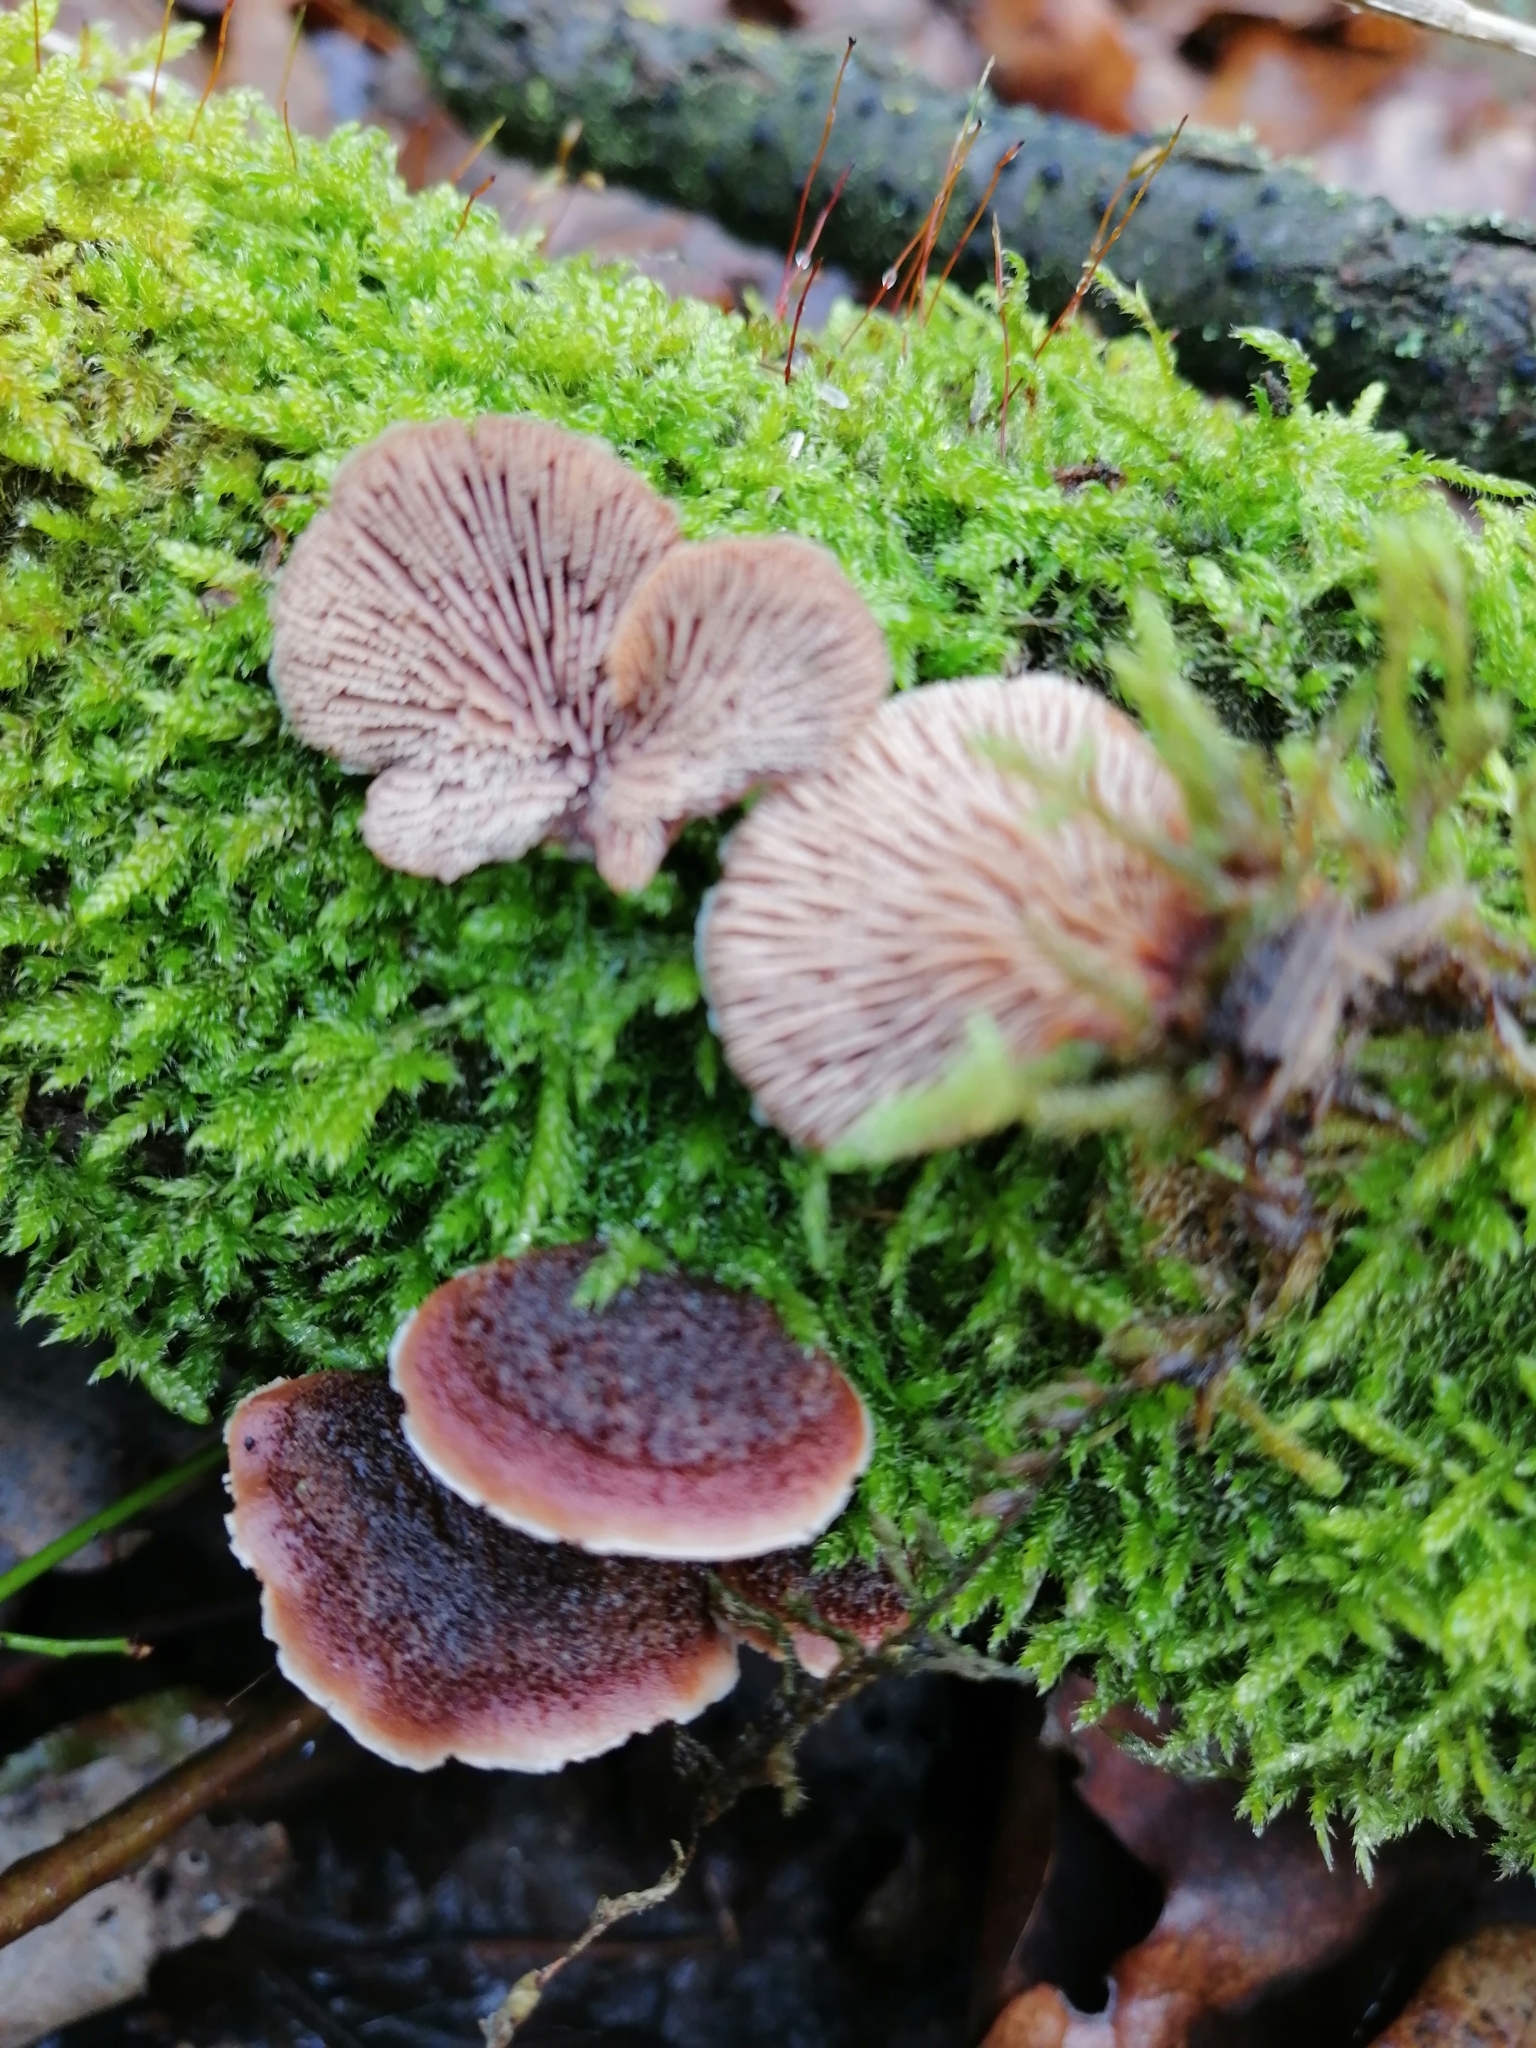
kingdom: Fungi
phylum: Basidiomycota
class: Agaricomycetes
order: Russulales
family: Auriscalpiaceae
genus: Lentinellus
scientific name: Lentinellus ursinus
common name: Bear lentinus
